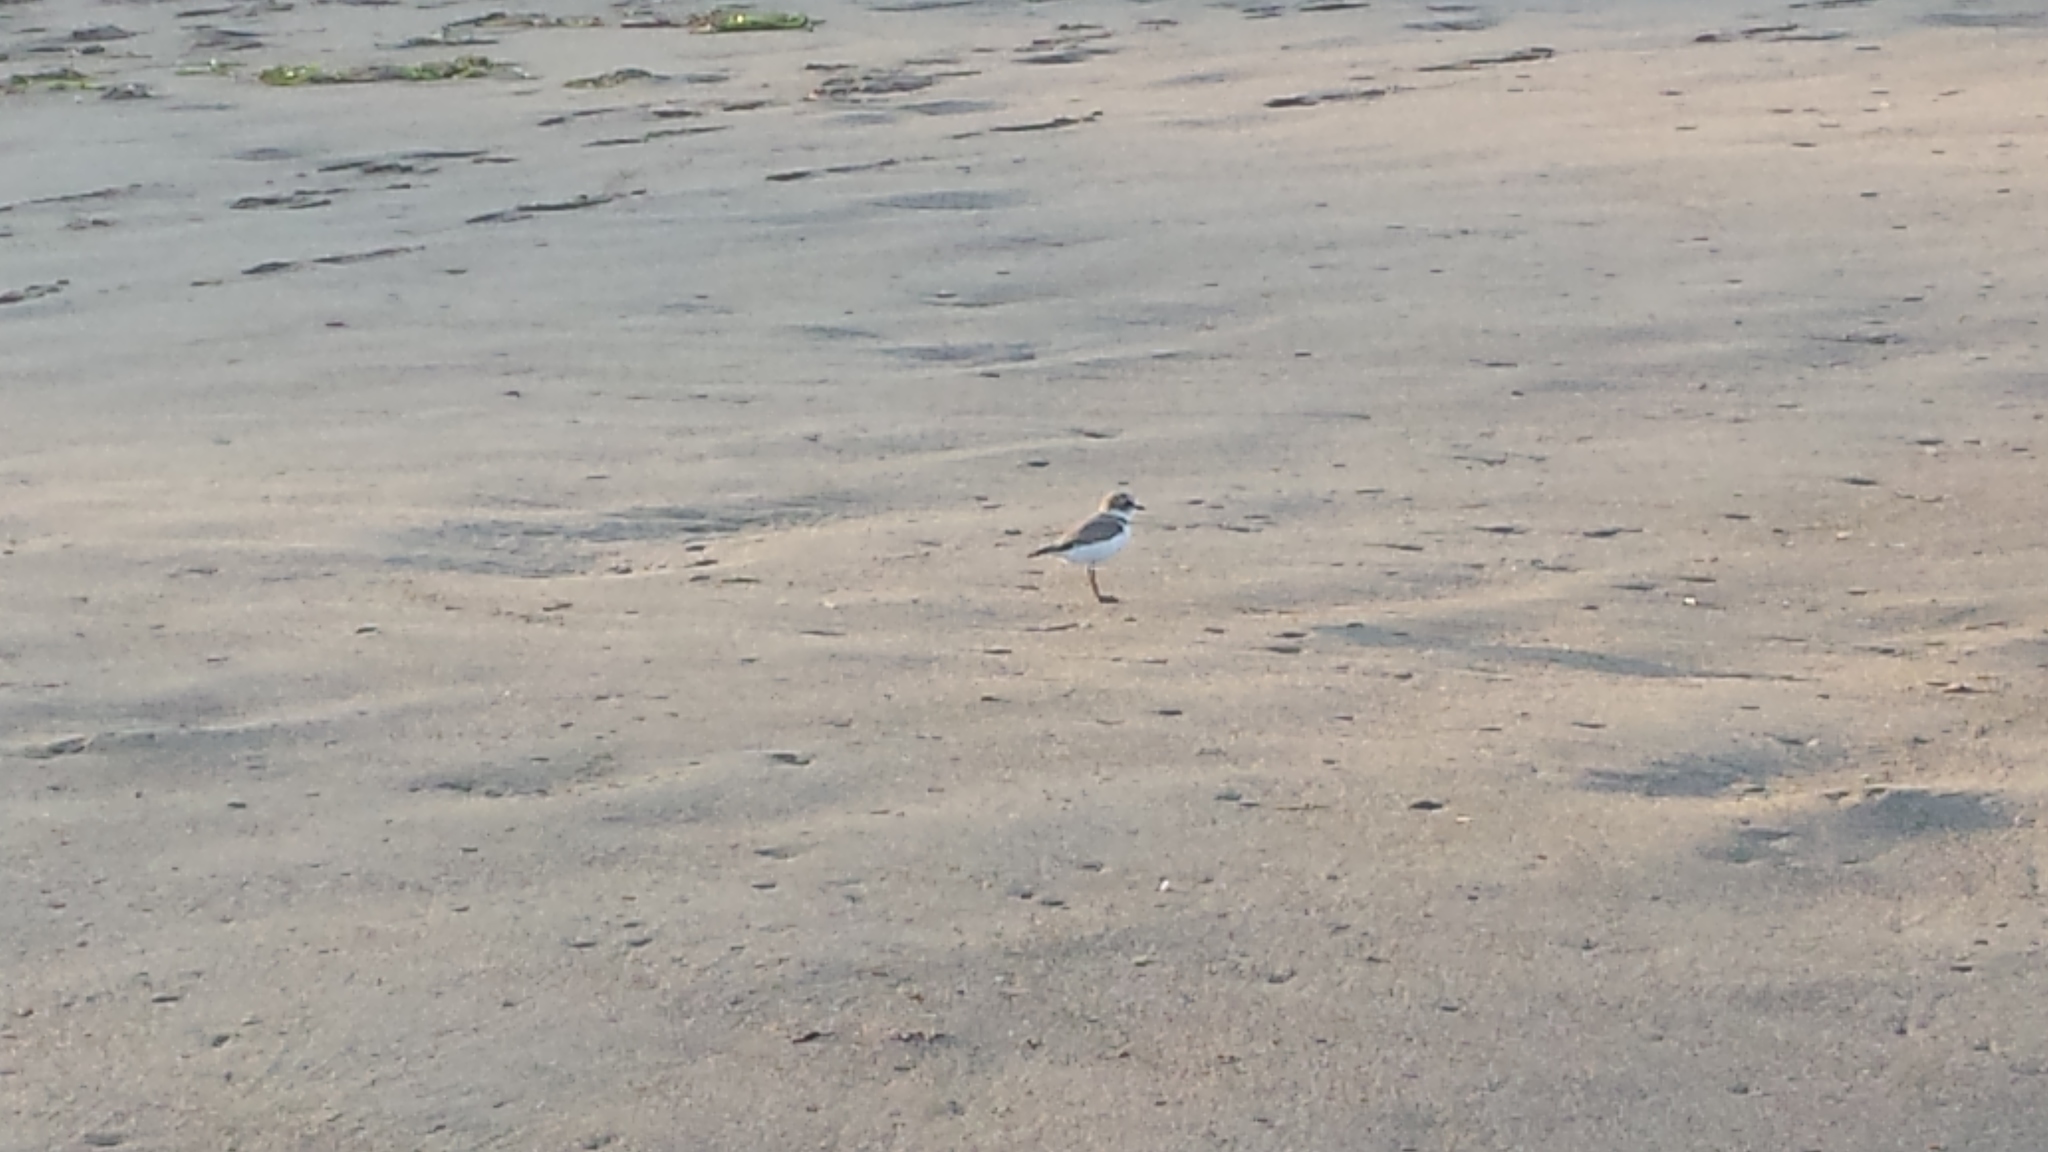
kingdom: Animalia
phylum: Chordata
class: Aves
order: Charadriiformes
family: Charadriidae
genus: Anarhynchus
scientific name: Anarhynchus
